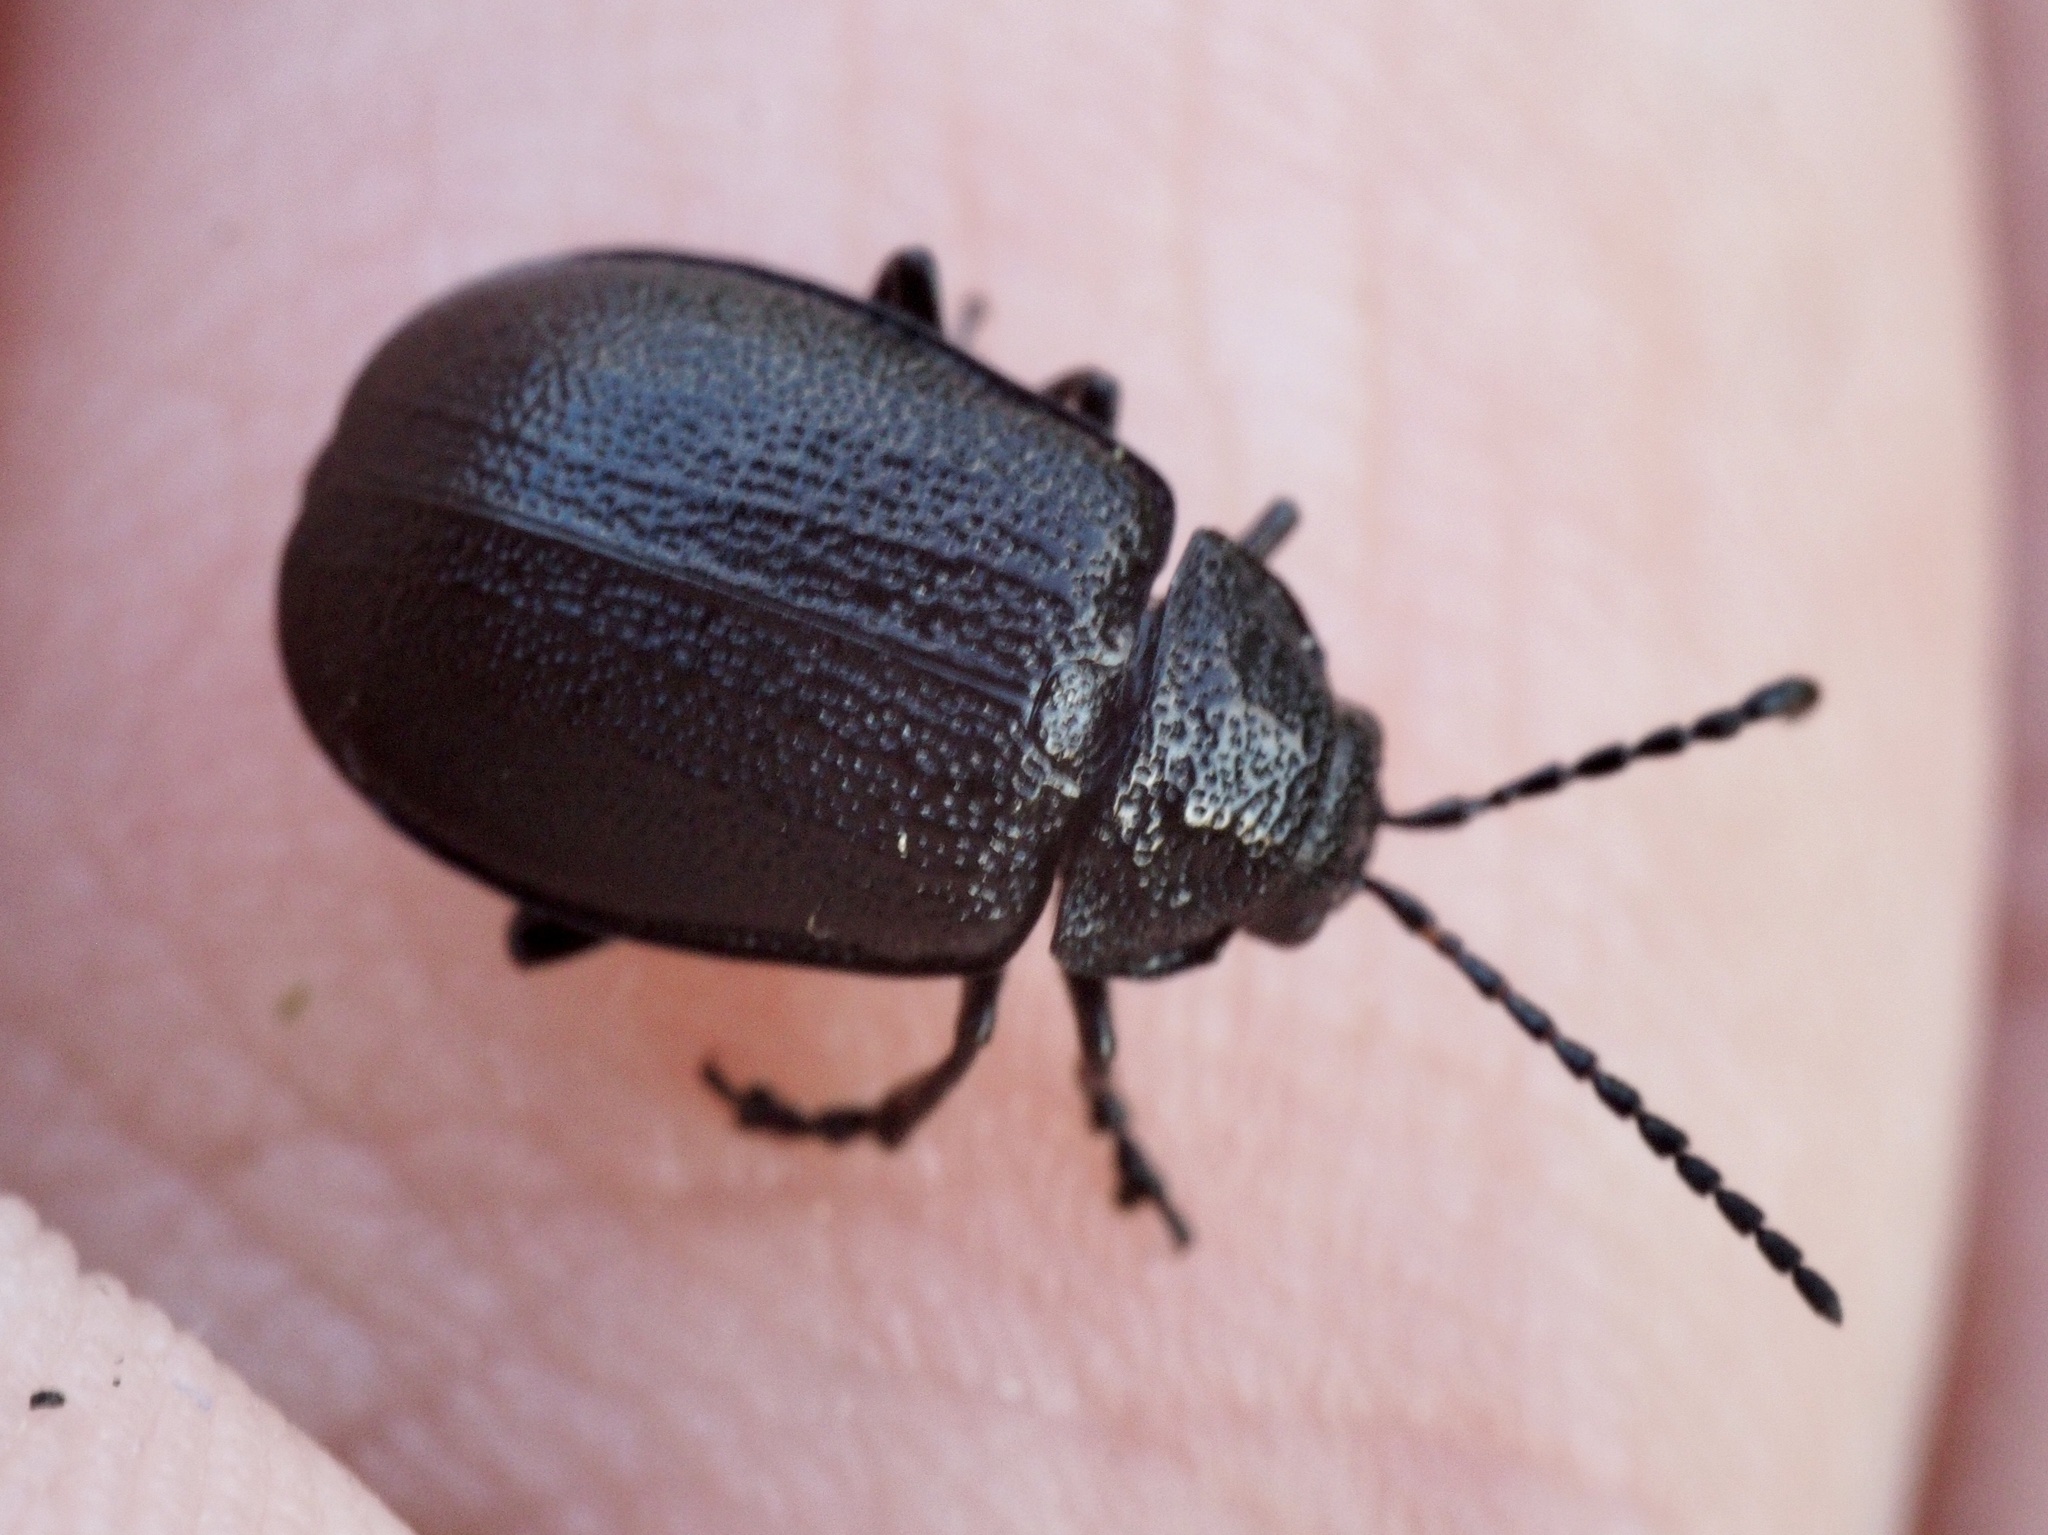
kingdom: Animalia
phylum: Arthropoda
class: Insecta
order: Coleoptera
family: Chrysomelidae
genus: Galeruca
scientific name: Galeruca tanaceti
